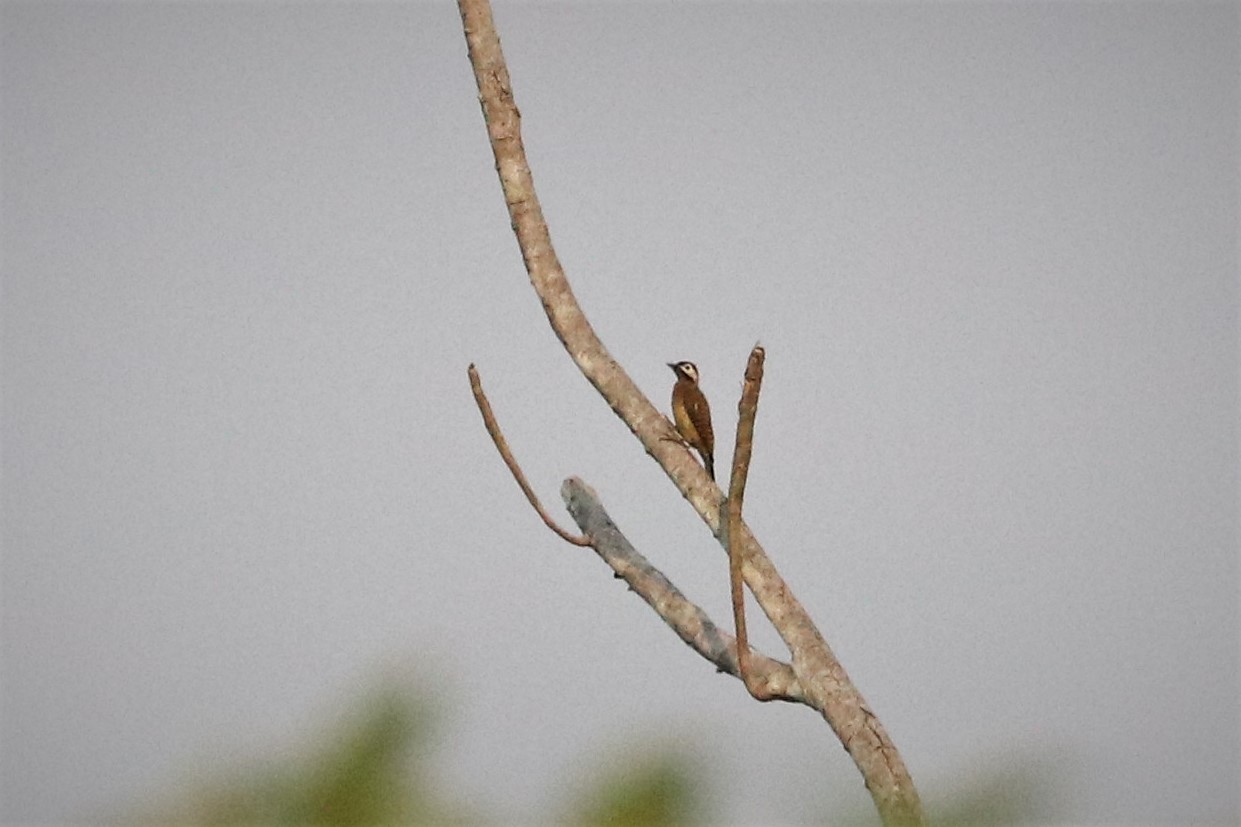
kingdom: Animalia
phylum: Chordata
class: Aves
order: Piciformes
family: Picidae
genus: Colaptes
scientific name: Colaptes punctigula
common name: Spot-breasted woodpecker
